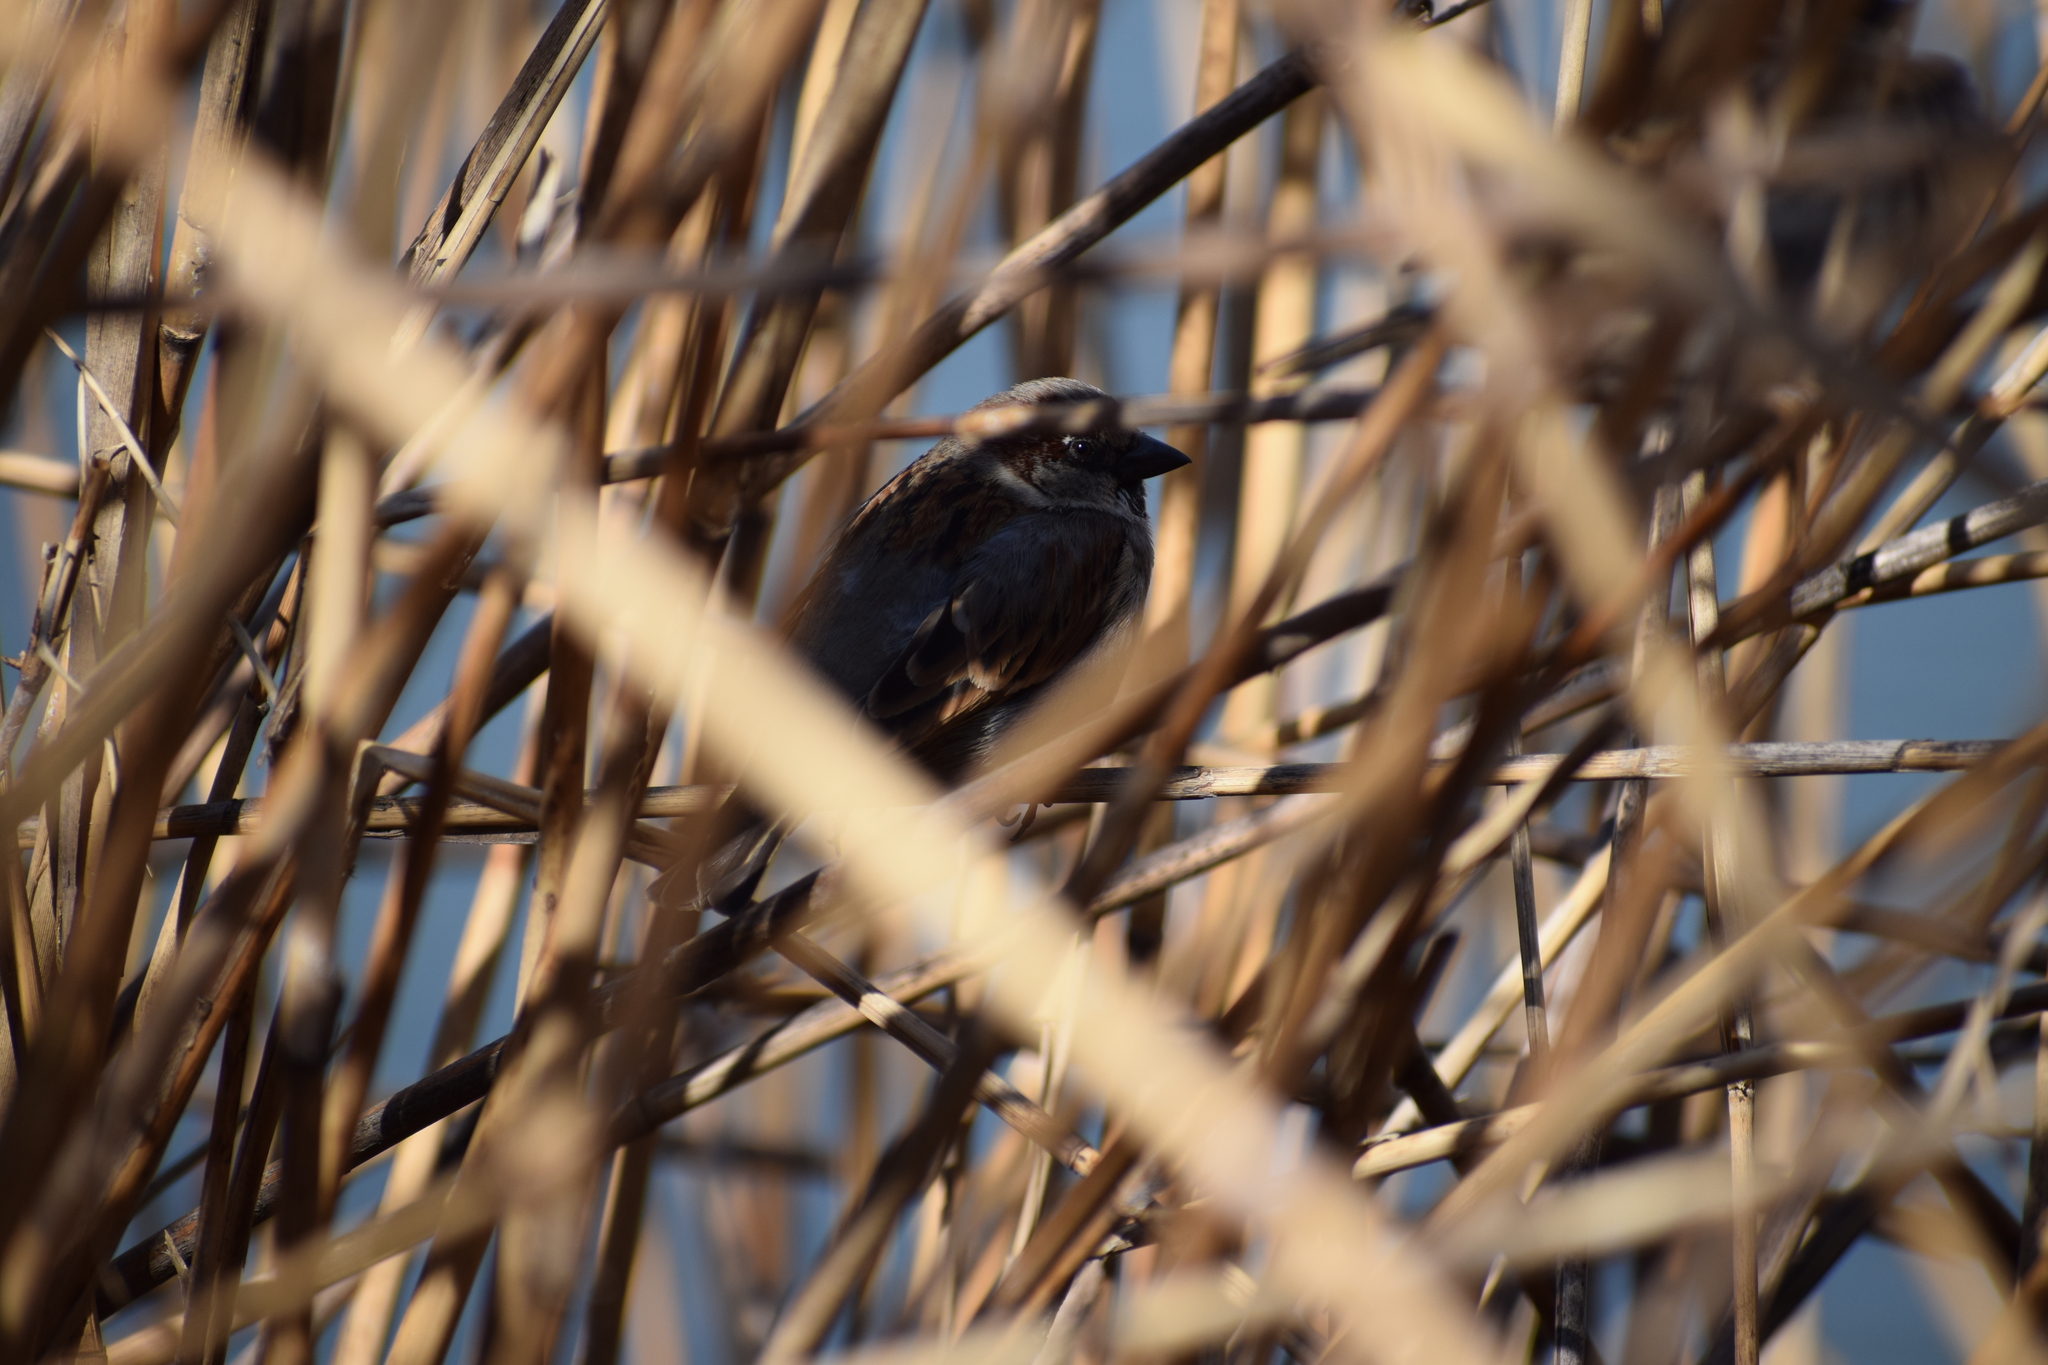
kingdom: Animalia
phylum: Chordata
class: Aves
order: Passeriformes
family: Passeridae
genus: Passer
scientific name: Passer domesticus
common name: House sparrow
